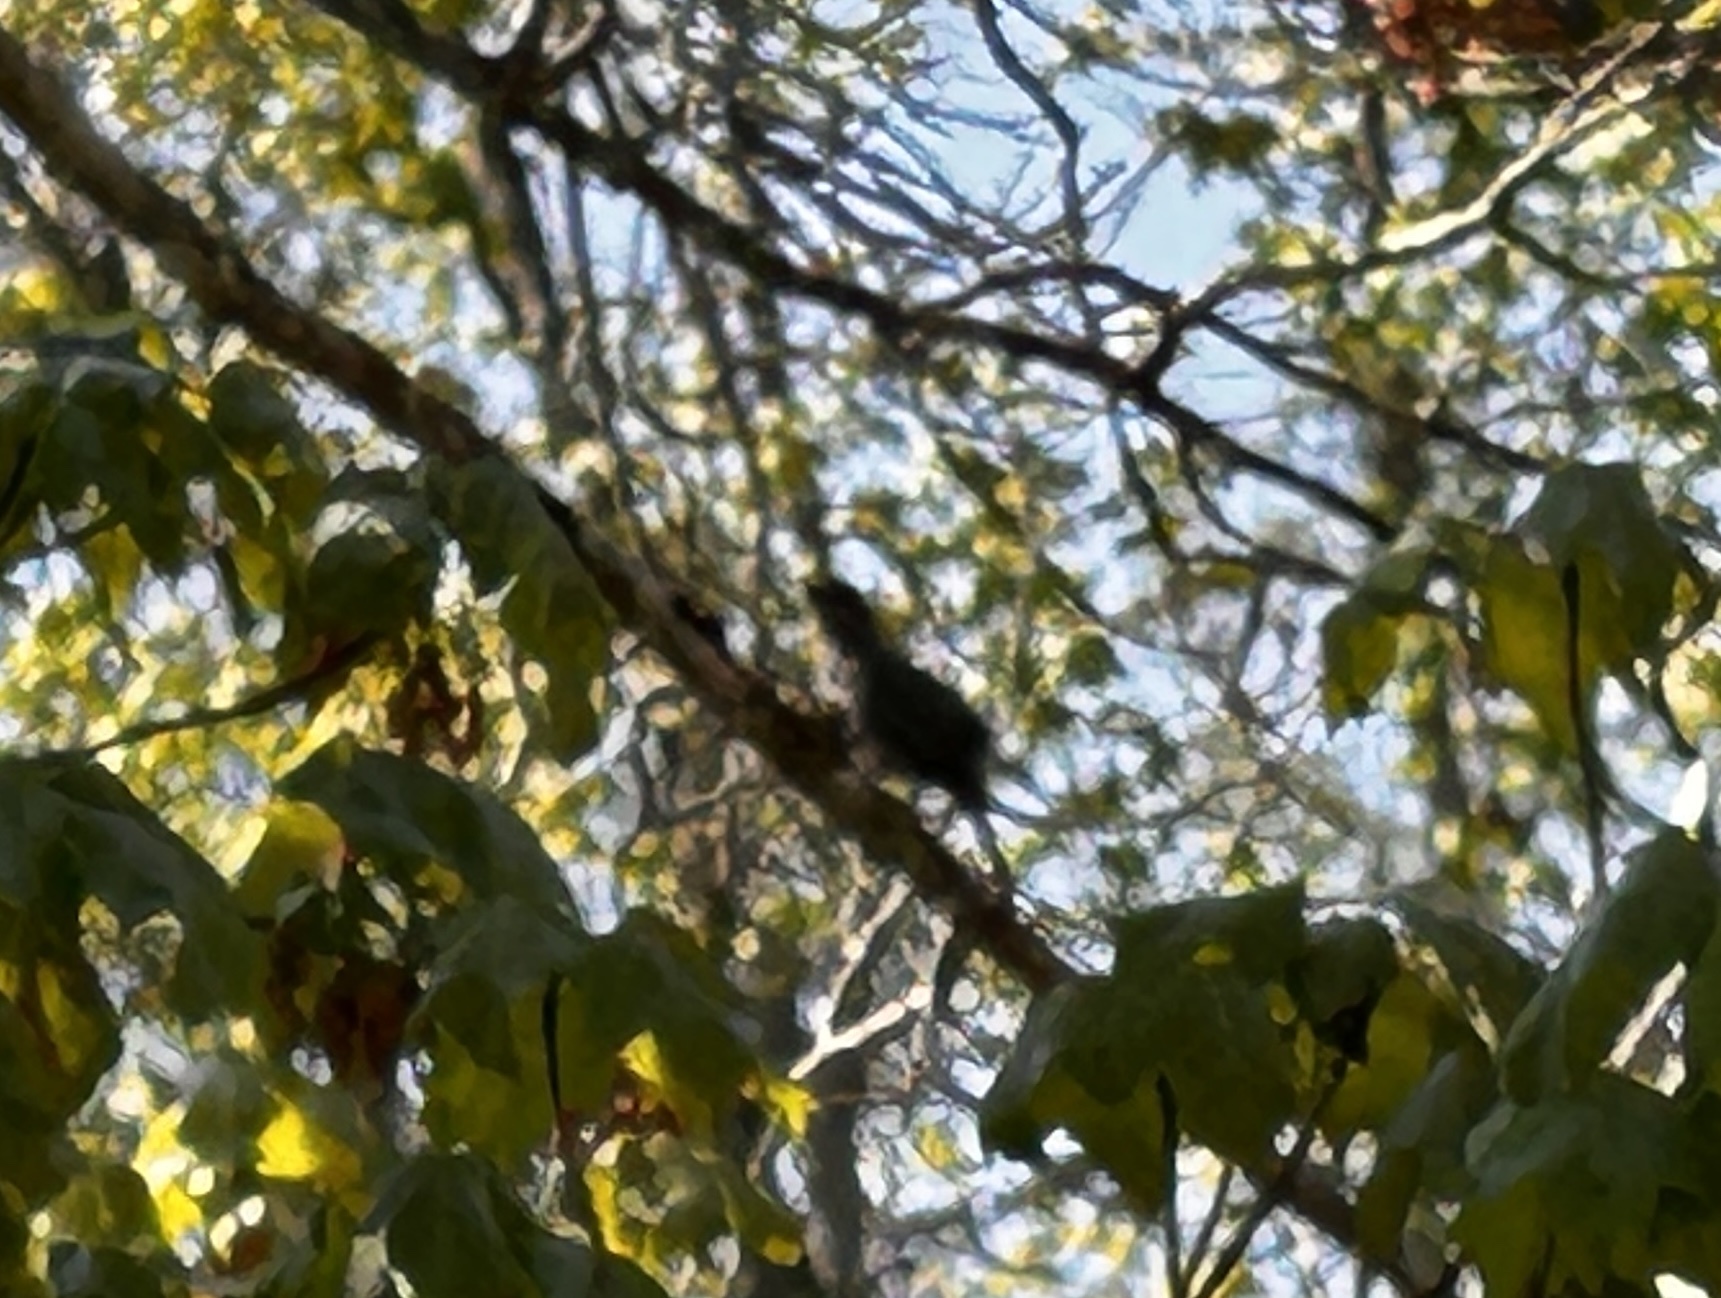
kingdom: Animalia
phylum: Chordata
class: Aves
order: Passeriformes
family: Mimidae
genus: Dumetella
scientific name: Dumetella carolinensis
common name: Gray catbird
